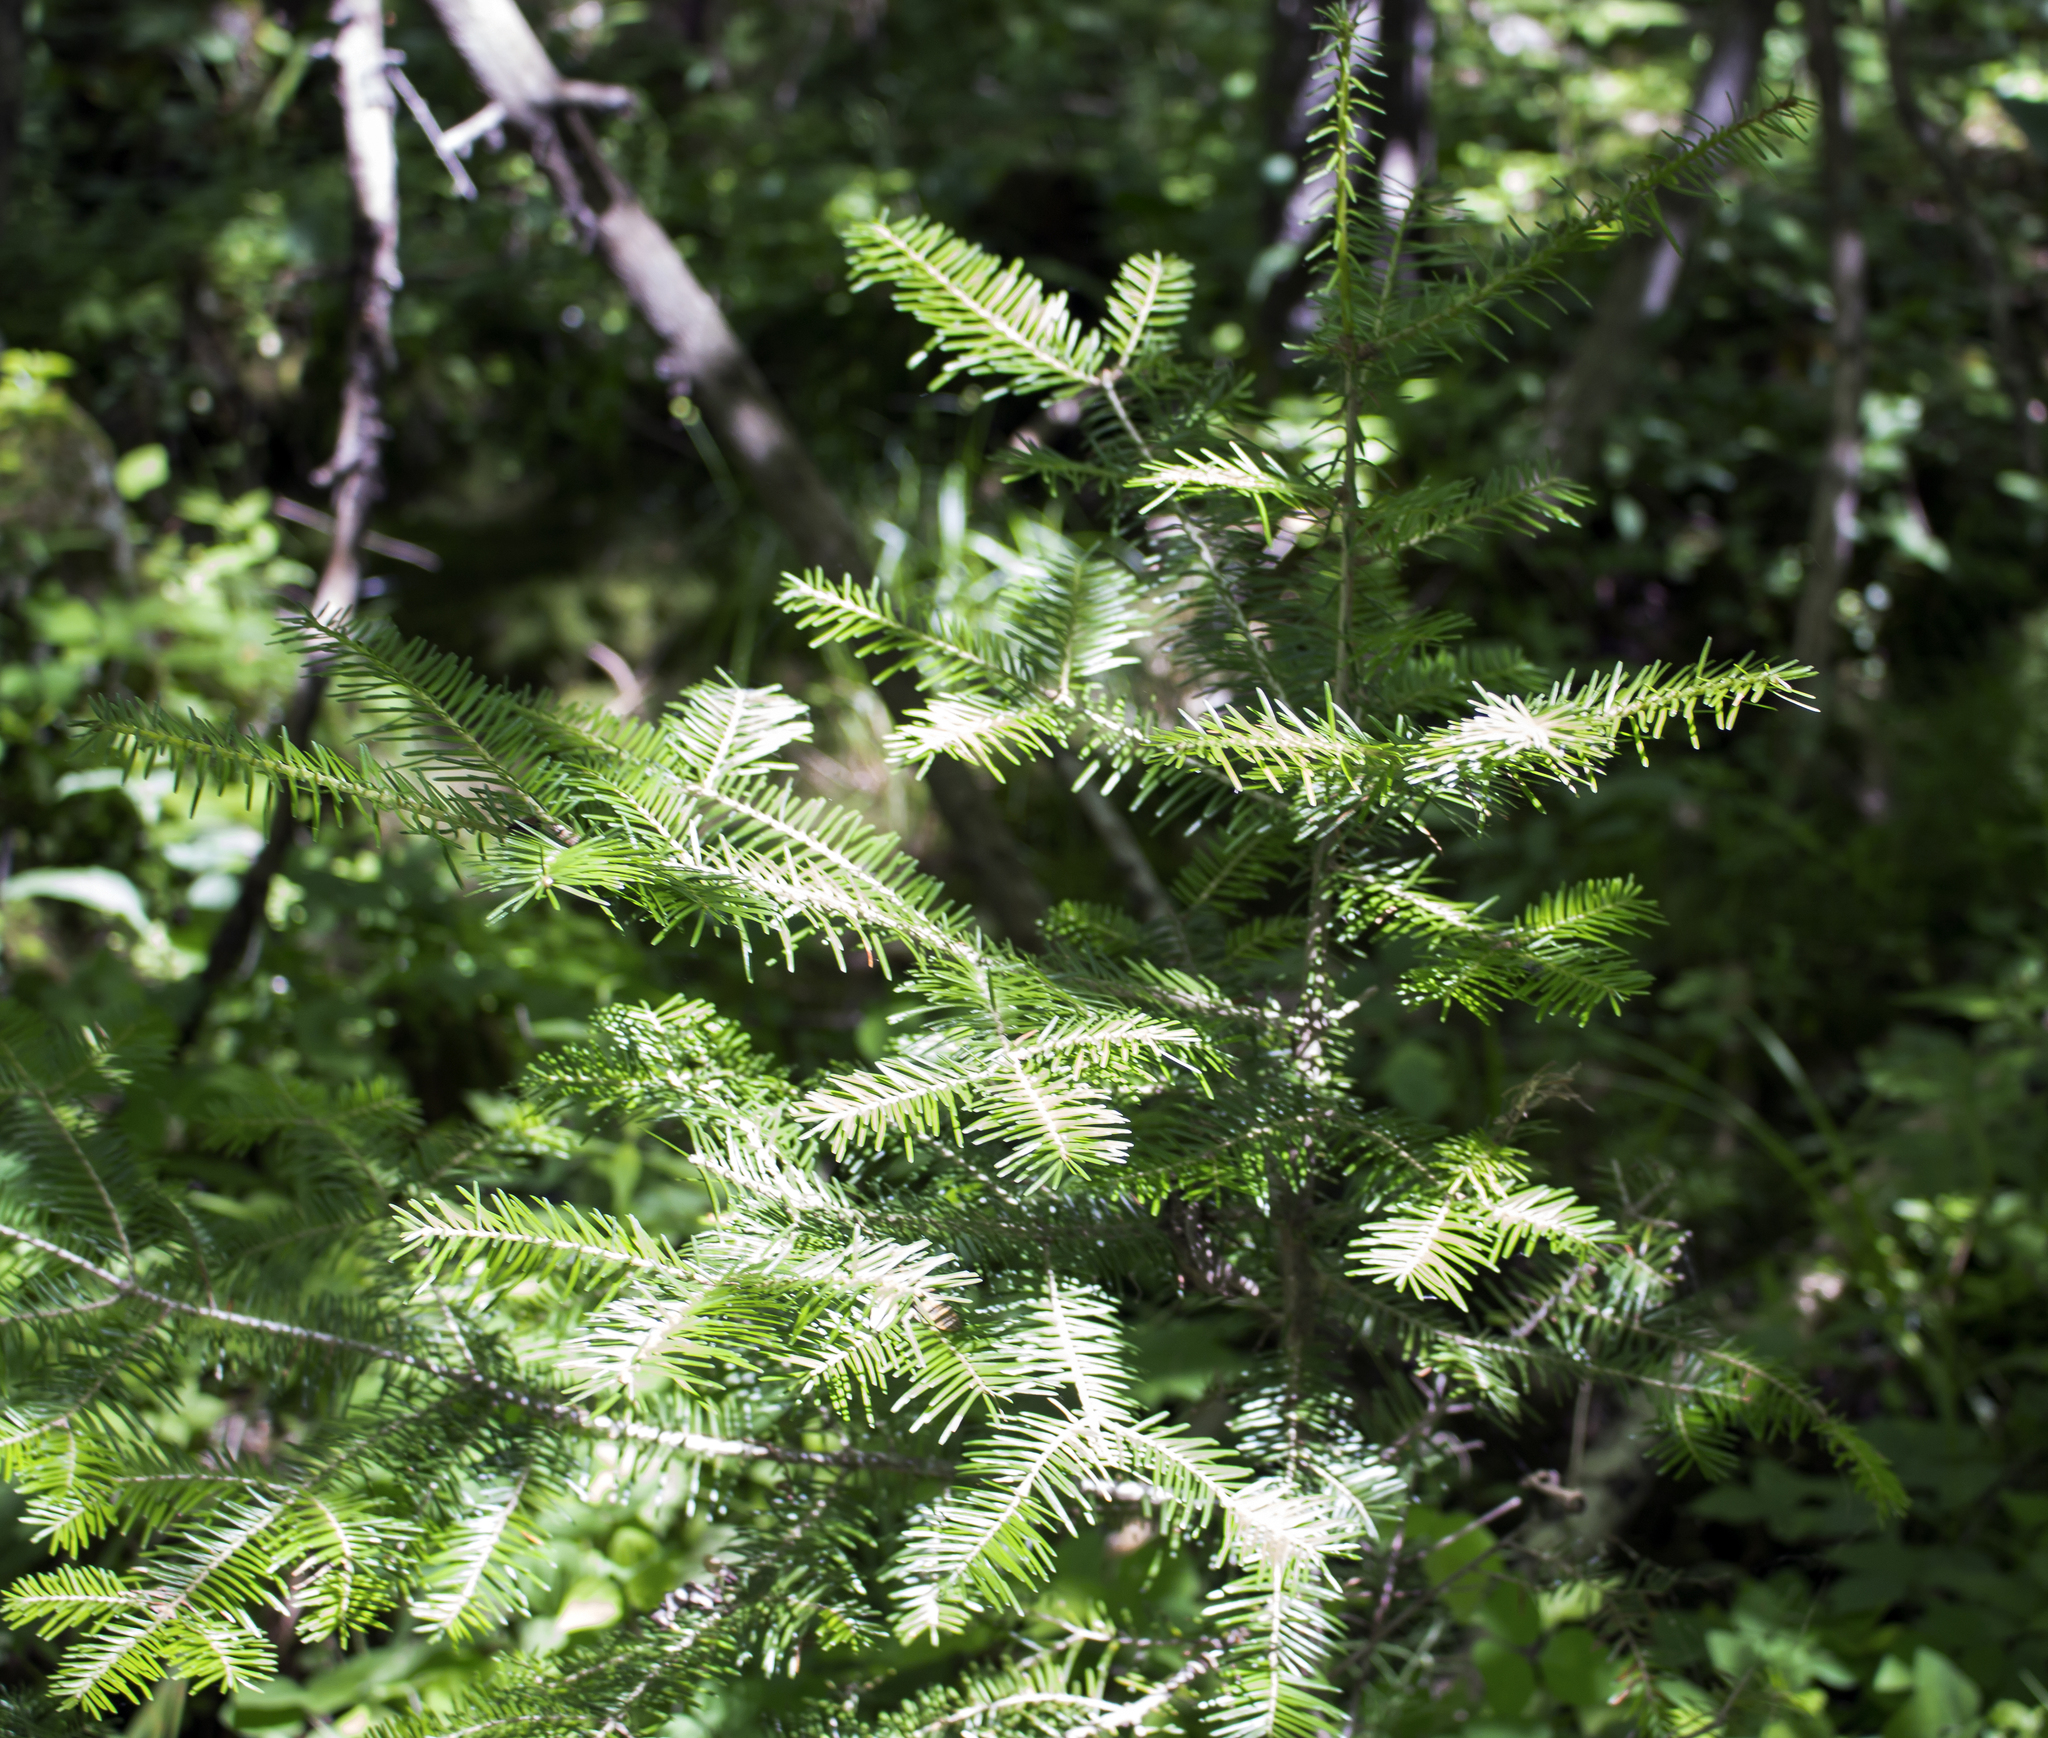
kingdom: Plantae
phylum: Tracheophyta
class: Pinopsida
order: Pinales
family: Pinaceae
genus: Abies
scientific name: Abies balsamea
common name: Balsam fir
